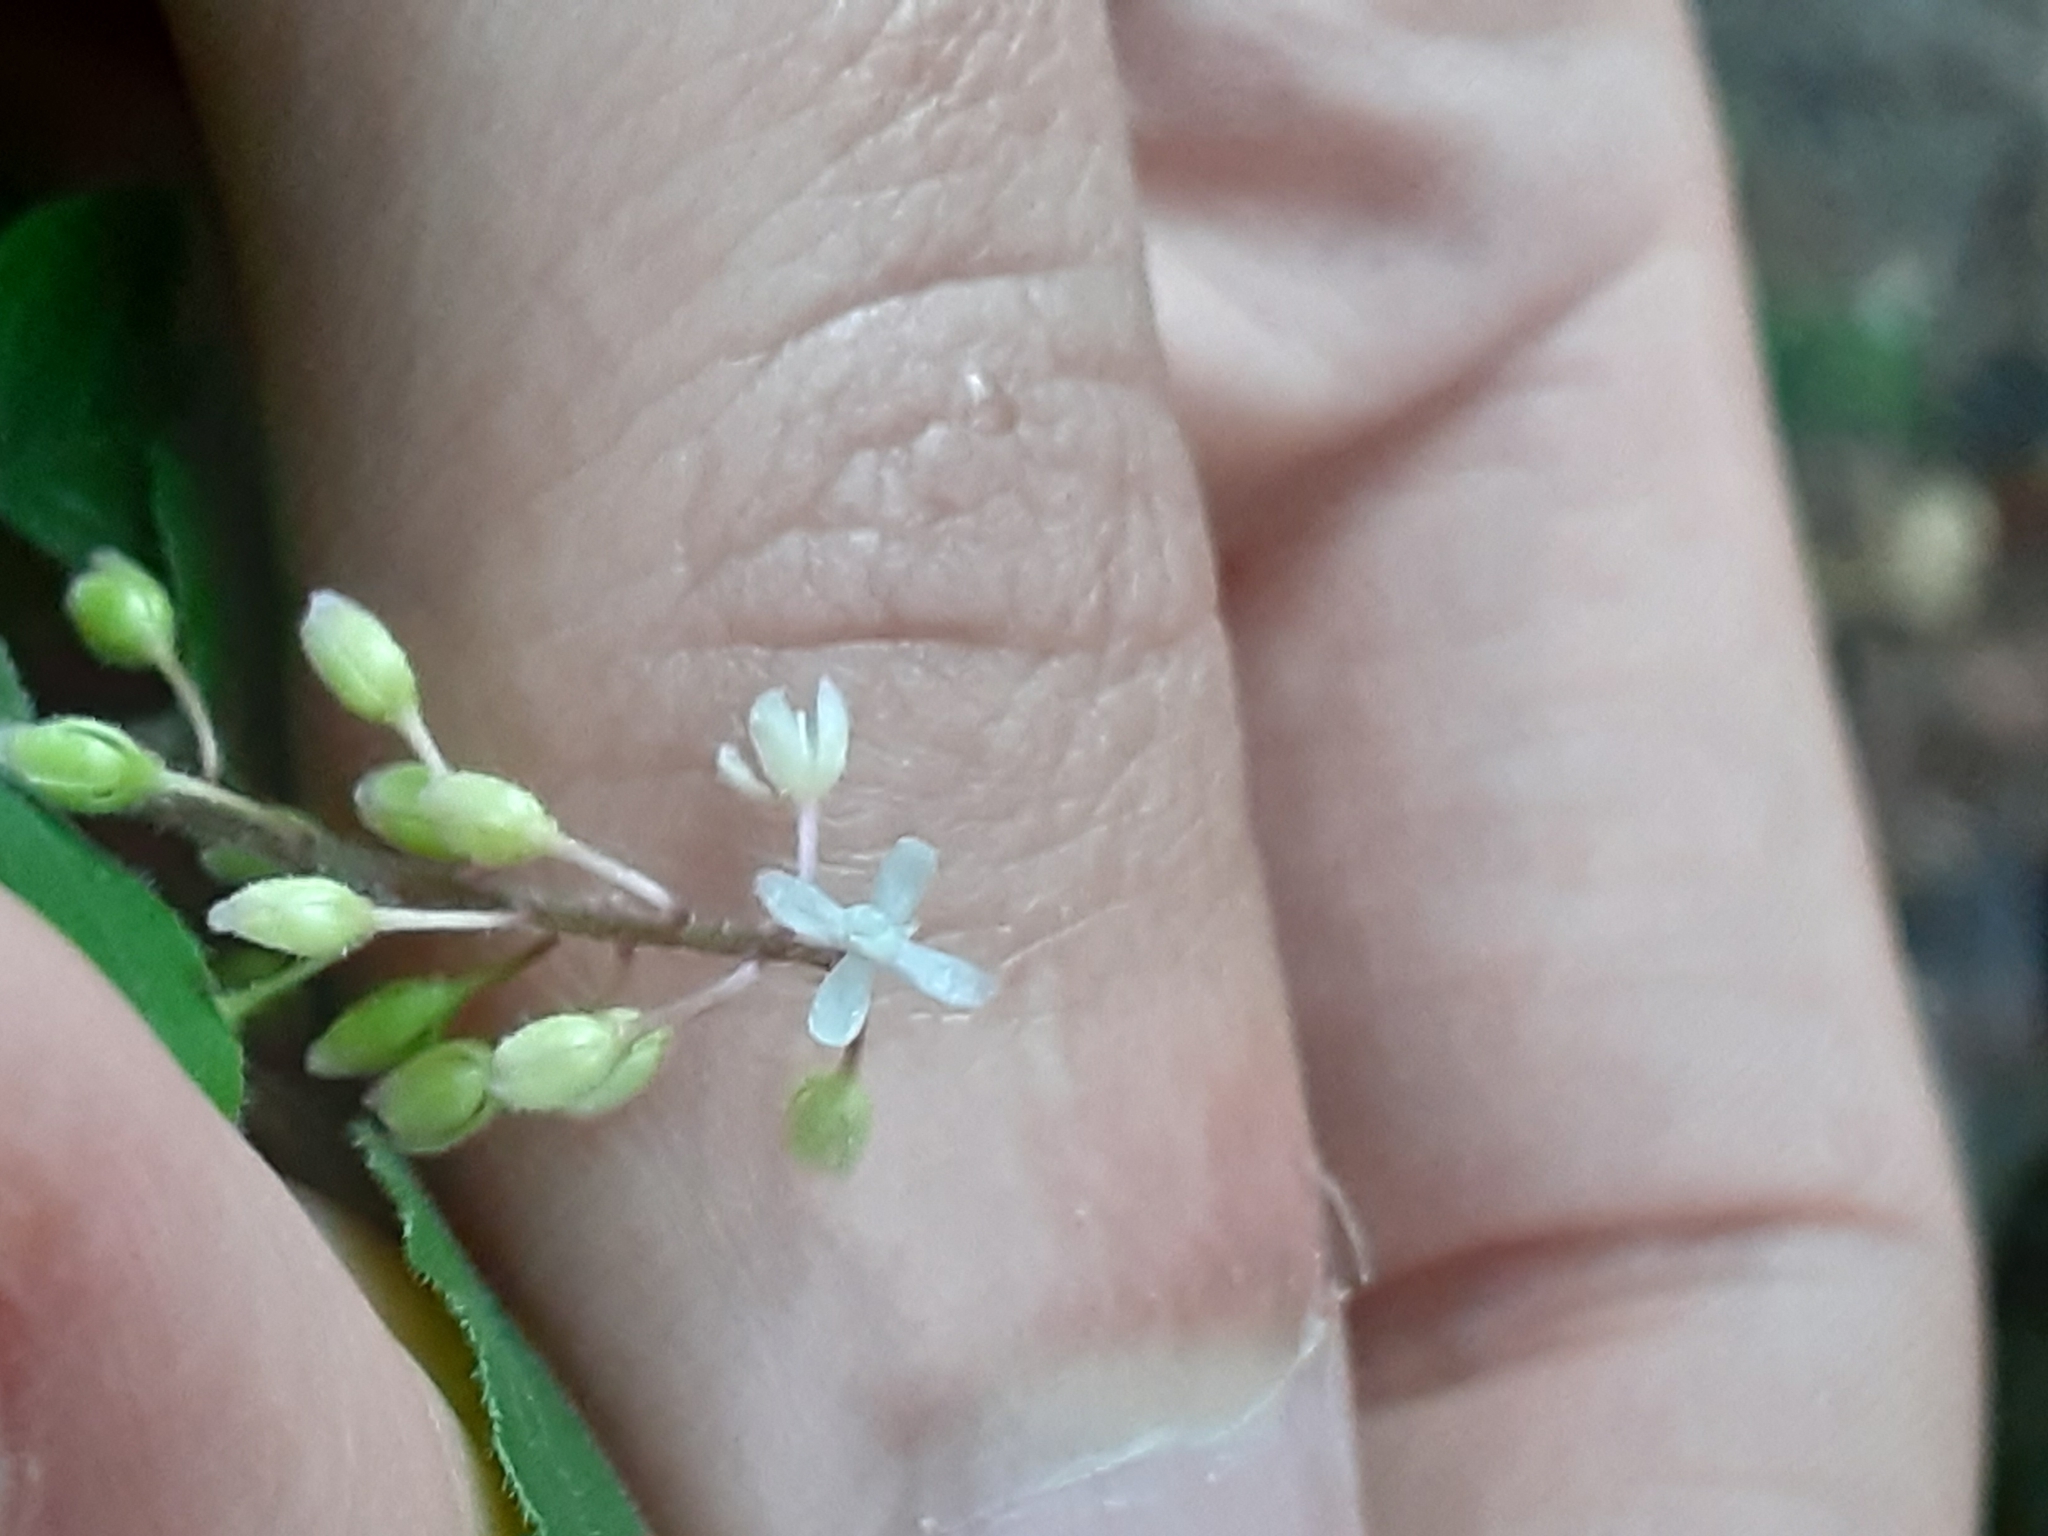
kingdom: Plantae
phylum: Tracheophyta
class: Magnoliopsida
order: Caryophyllales
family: Phytolaccaceae
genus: Rivina
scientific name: Rivina humilis
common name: Rougeplant
